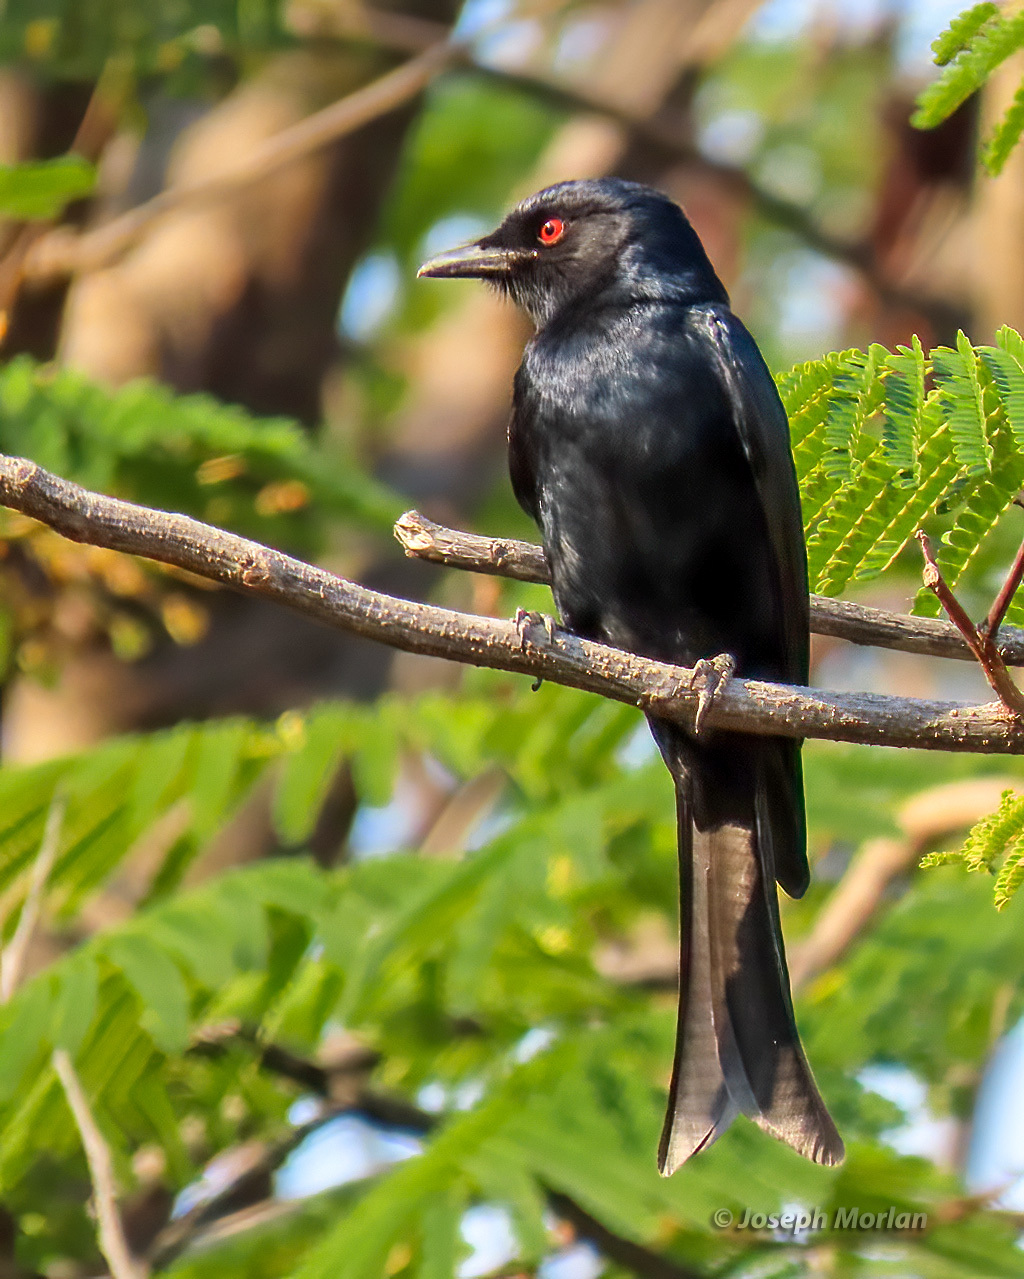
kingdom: Animalia
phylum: Chordata
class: Aves
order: Passeriformes
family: Dicruridae
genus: Dicrurus
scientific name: Dicrurus adsimilis
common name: Fork-tailed drongo
